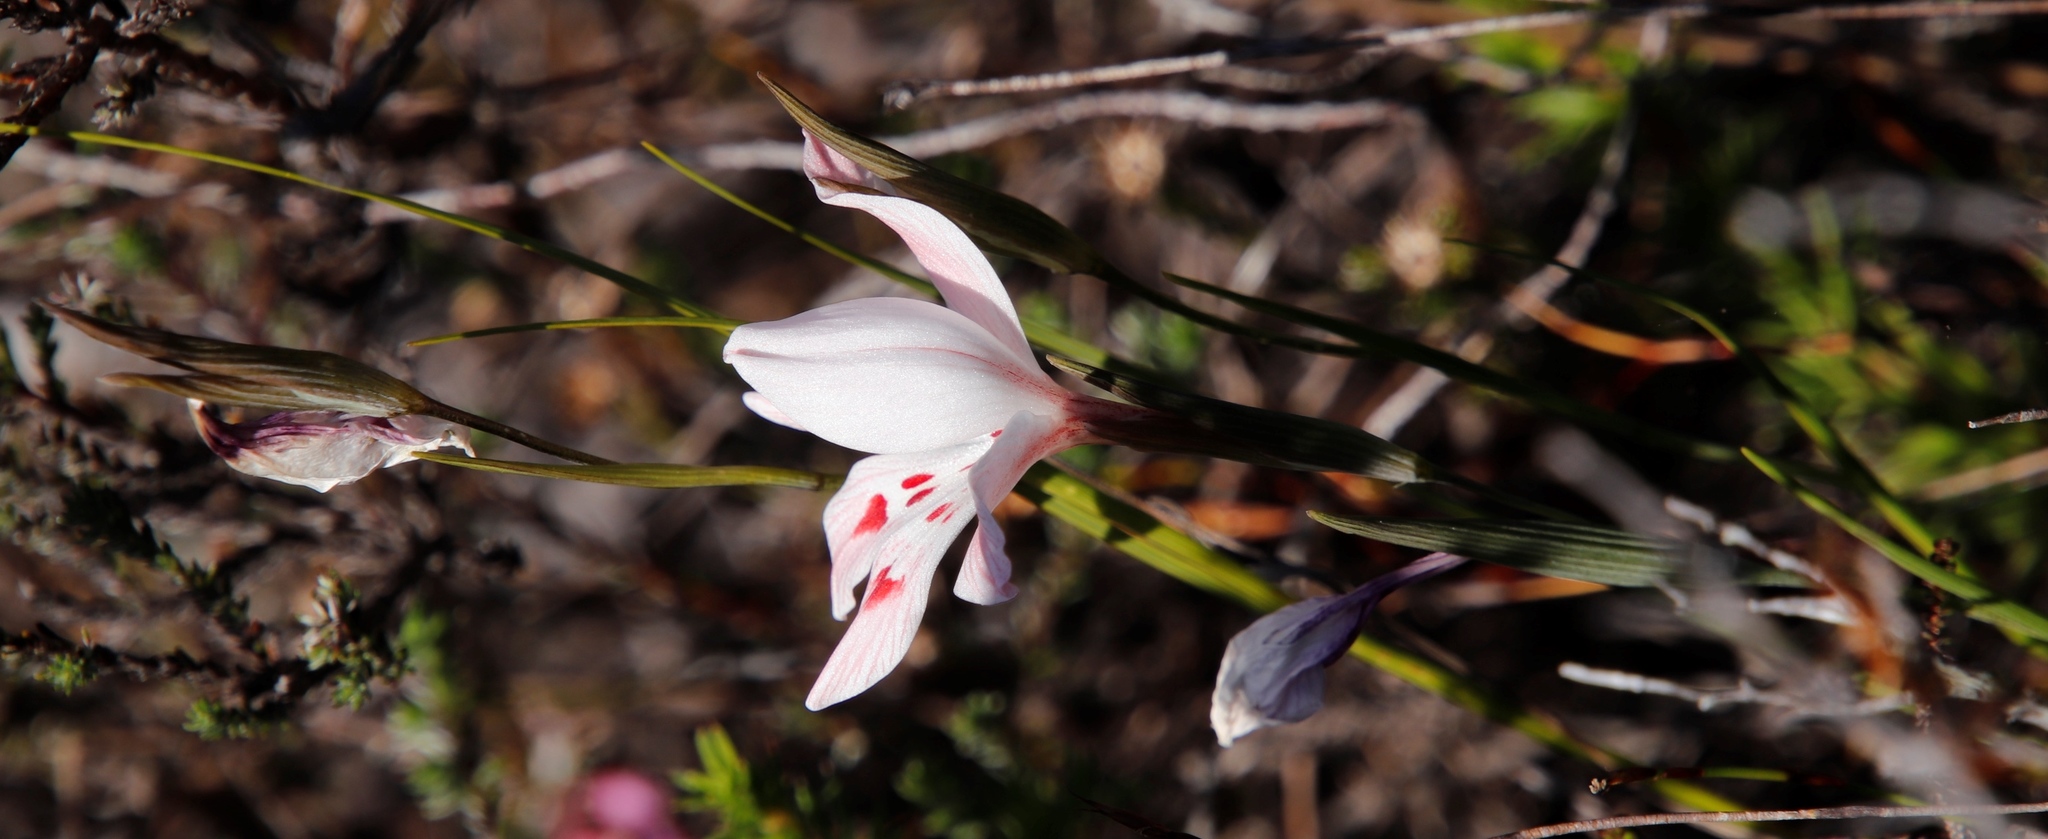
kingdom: Plantae
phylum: Tracheophyta
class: Liliopsida
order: Asparagales
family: Iridaceae
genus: Gladiolus
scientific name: Gladiolus debilis
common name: Painted-lady
